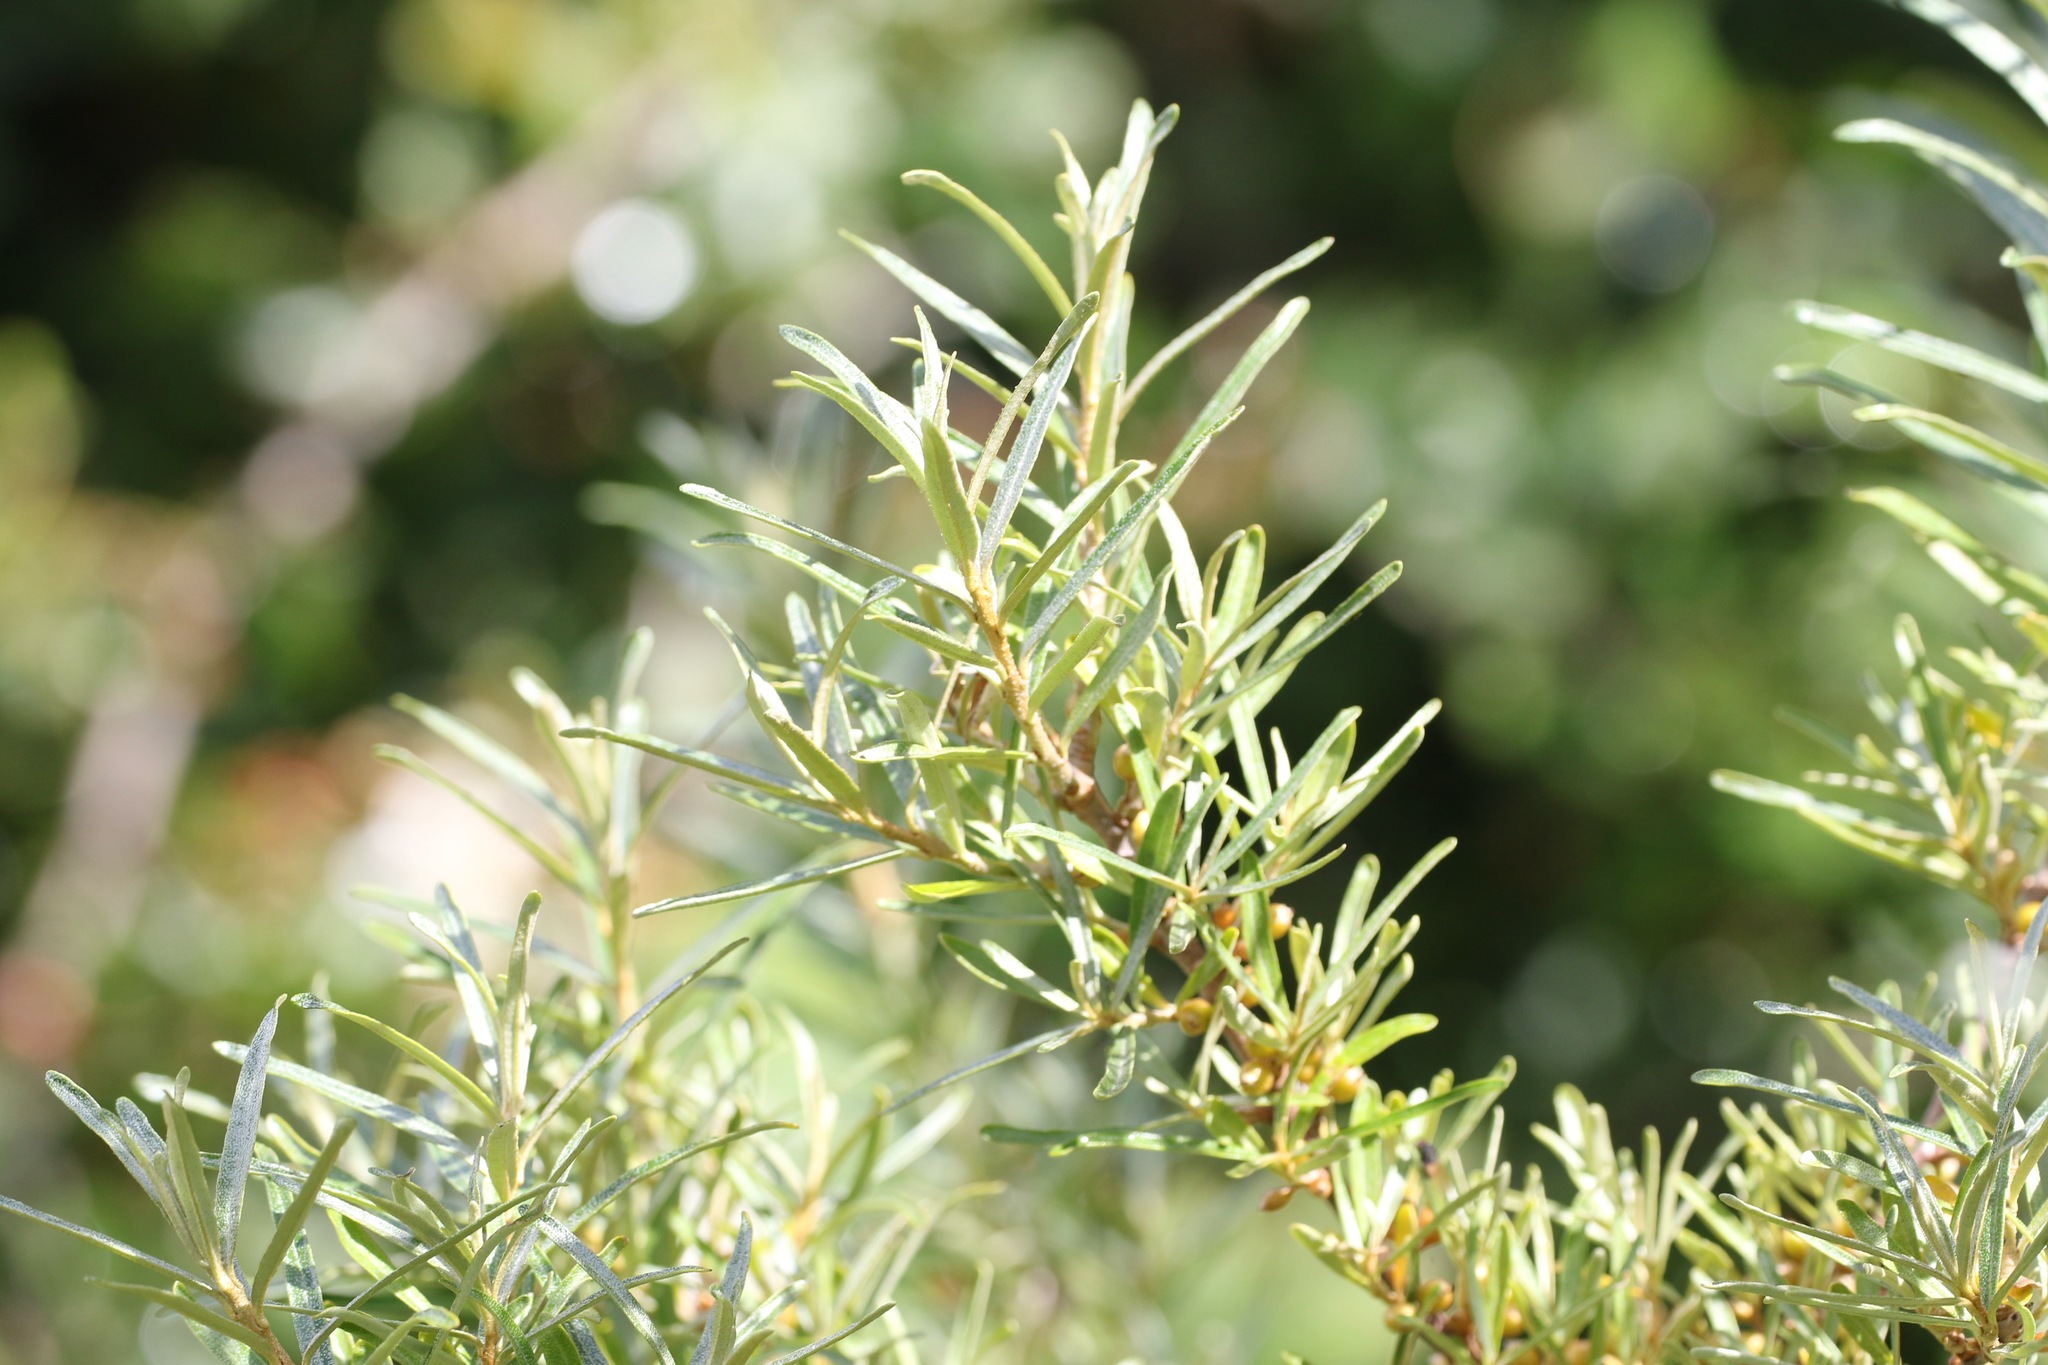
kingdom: Plantae
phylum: Tracheophyta
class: Magnoliopsida
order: Rosales
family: Elaeagnaceae
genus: Hippophae
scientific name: Hippophae rhamnoides
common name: Sea-buckthorn
